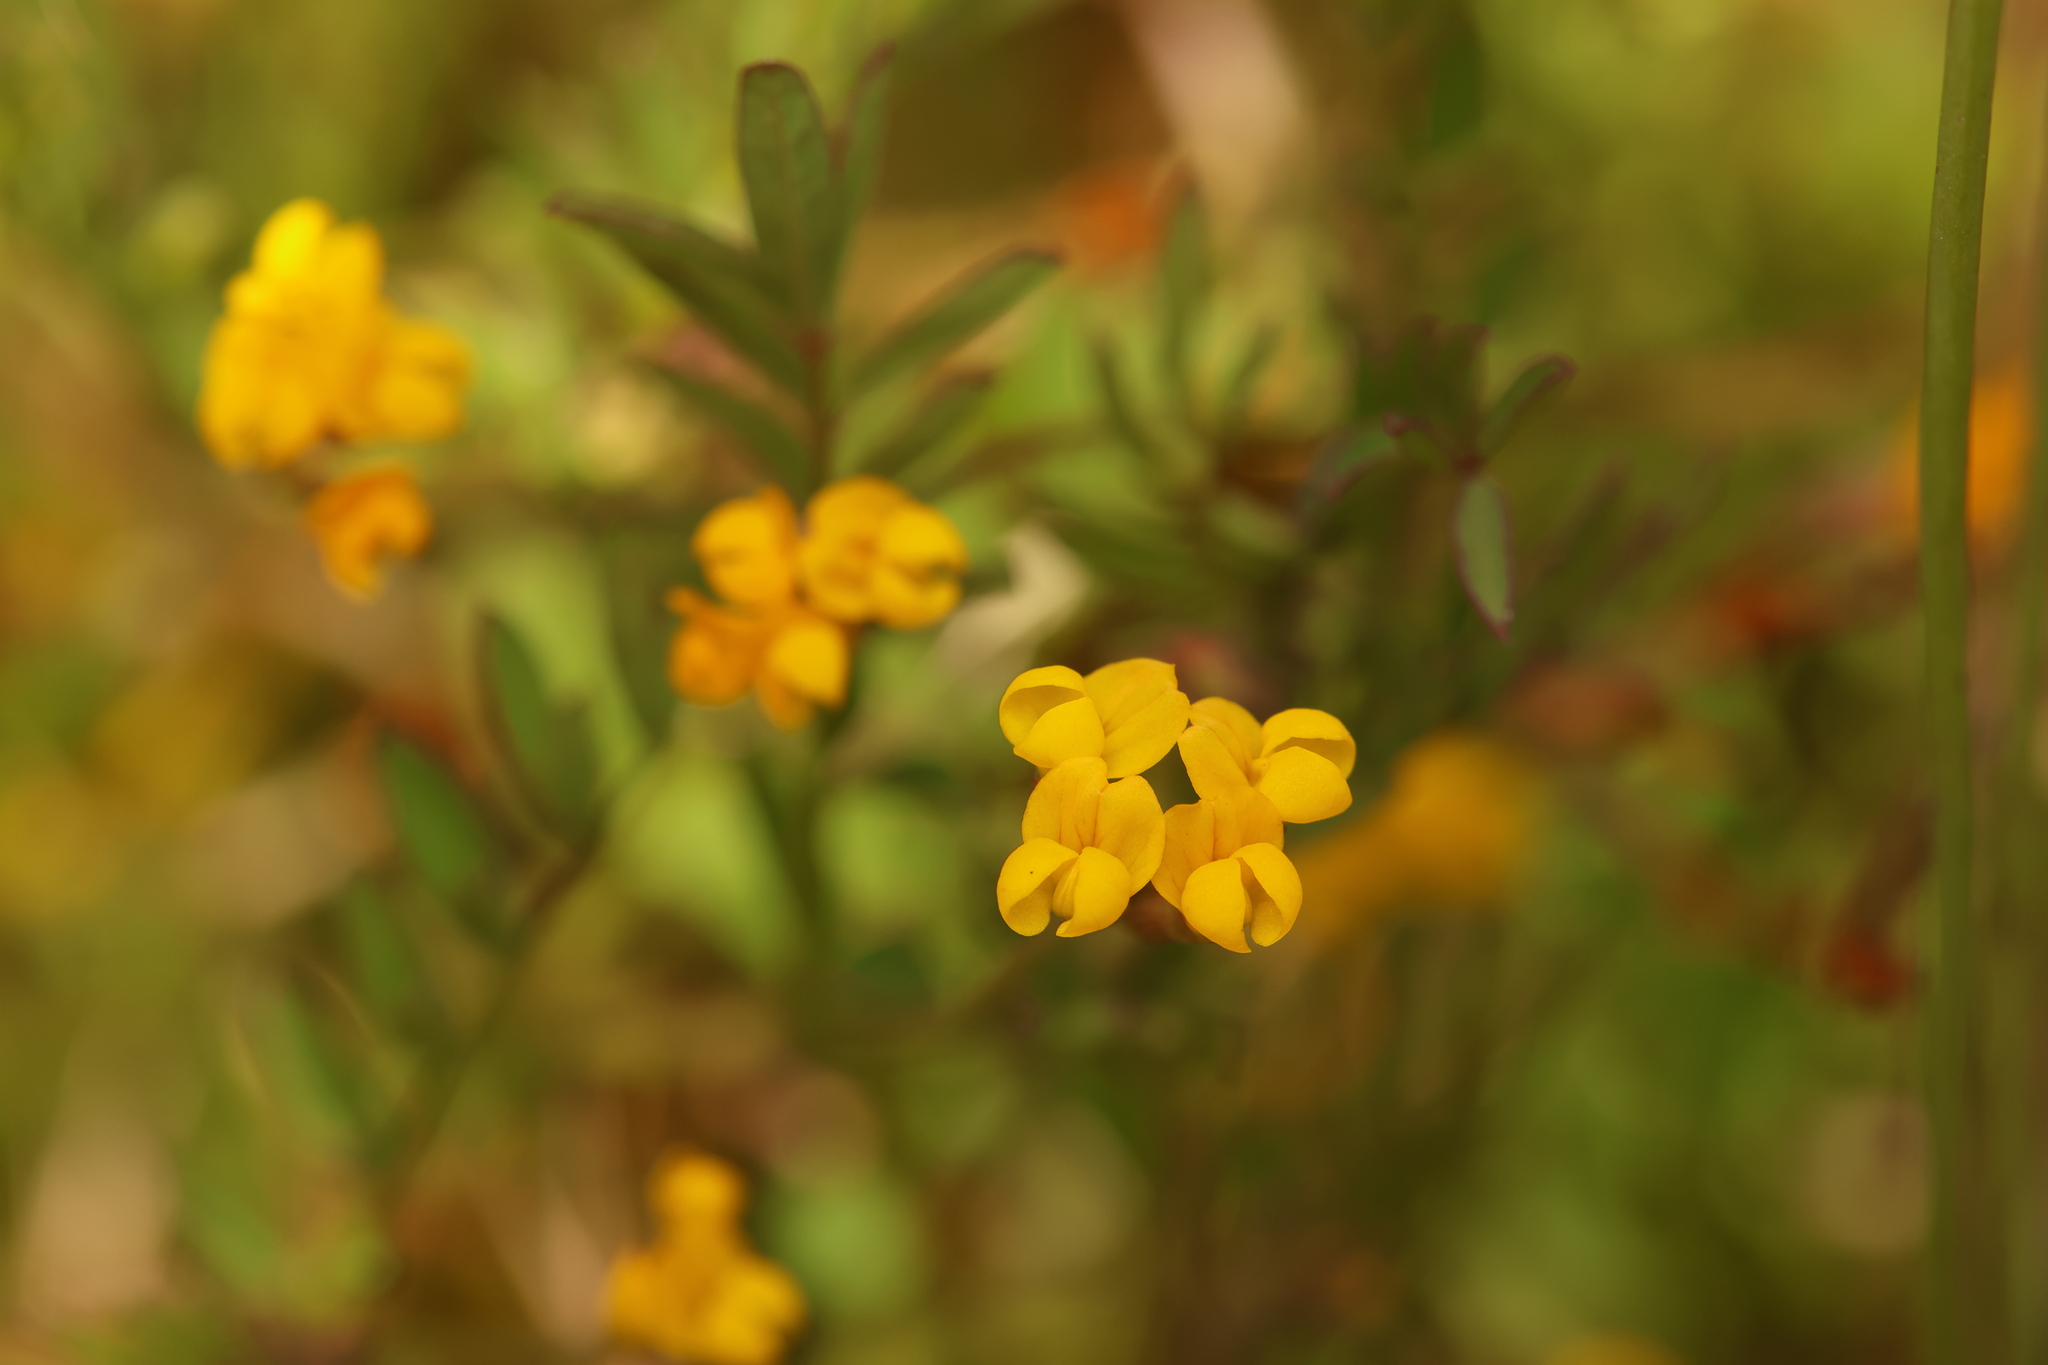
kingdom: Plantae
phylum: Tracheophyta
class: Magnoliopsida
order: Fabales
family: Fabaceae
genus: Ornithopus
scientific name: Ornithopus pinnatus
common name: Orange bird's-foot
